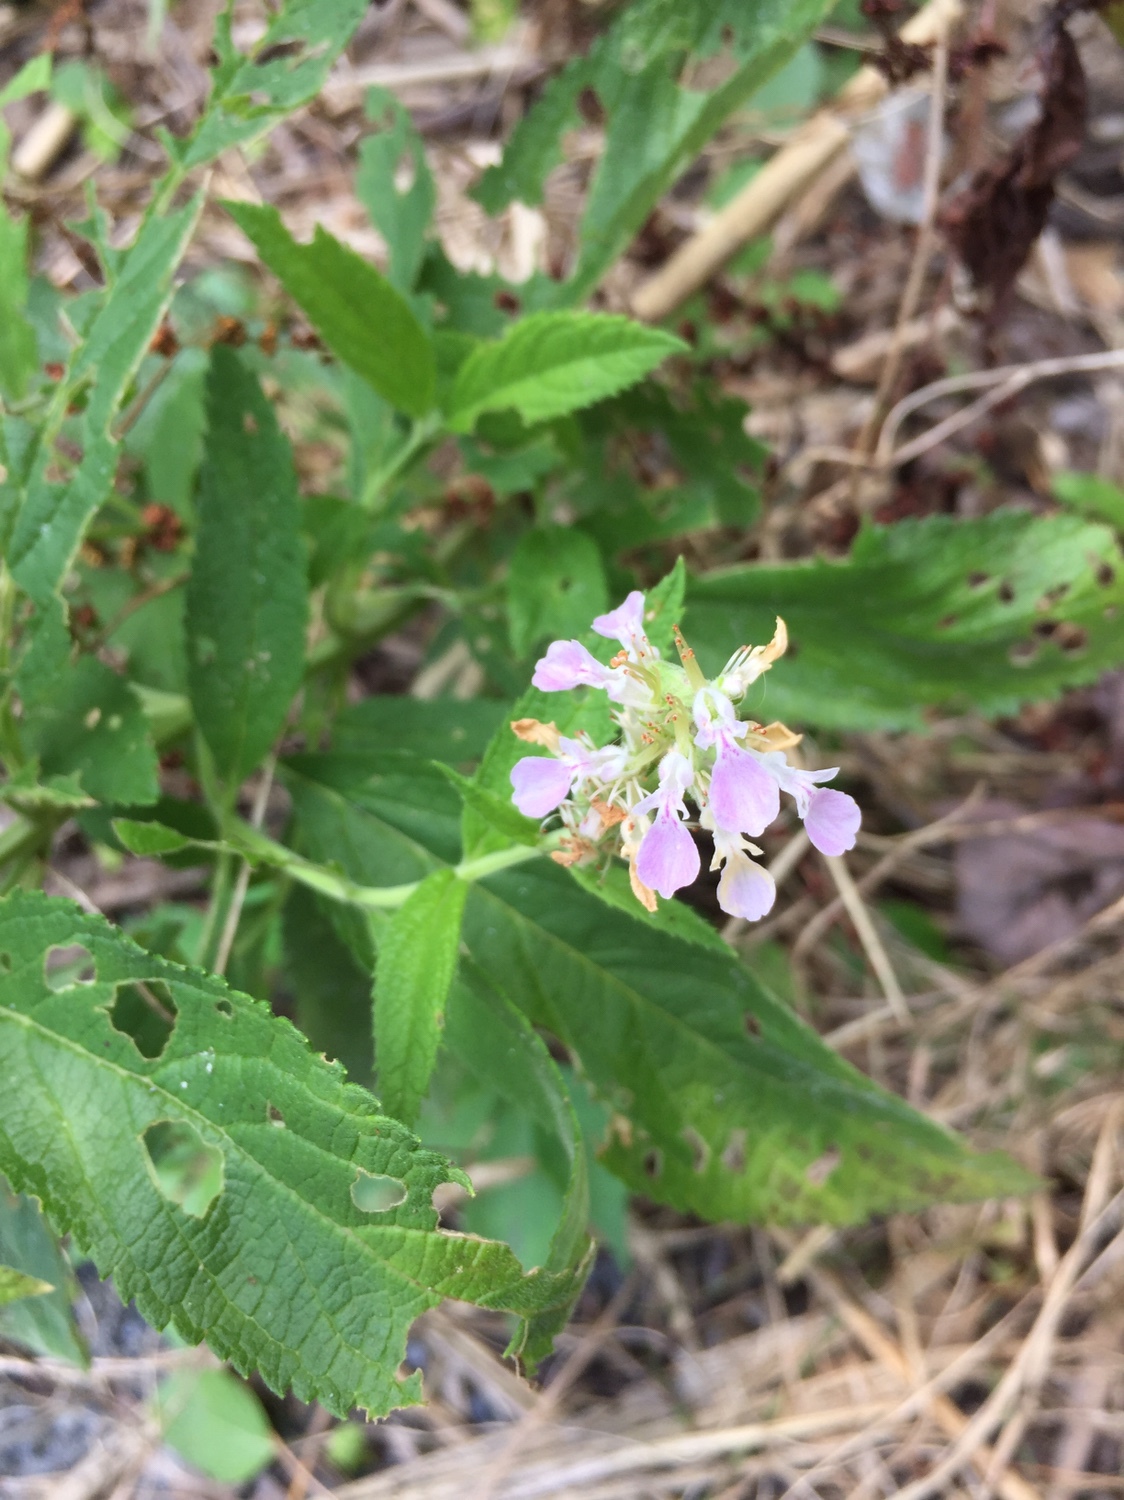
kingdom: Plantae
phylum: Tracheophyta
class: Magnoliopsida
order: Lamiales
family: Lamiaceae
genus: Teucrium
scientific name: Teucrium canadense
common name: American germander
